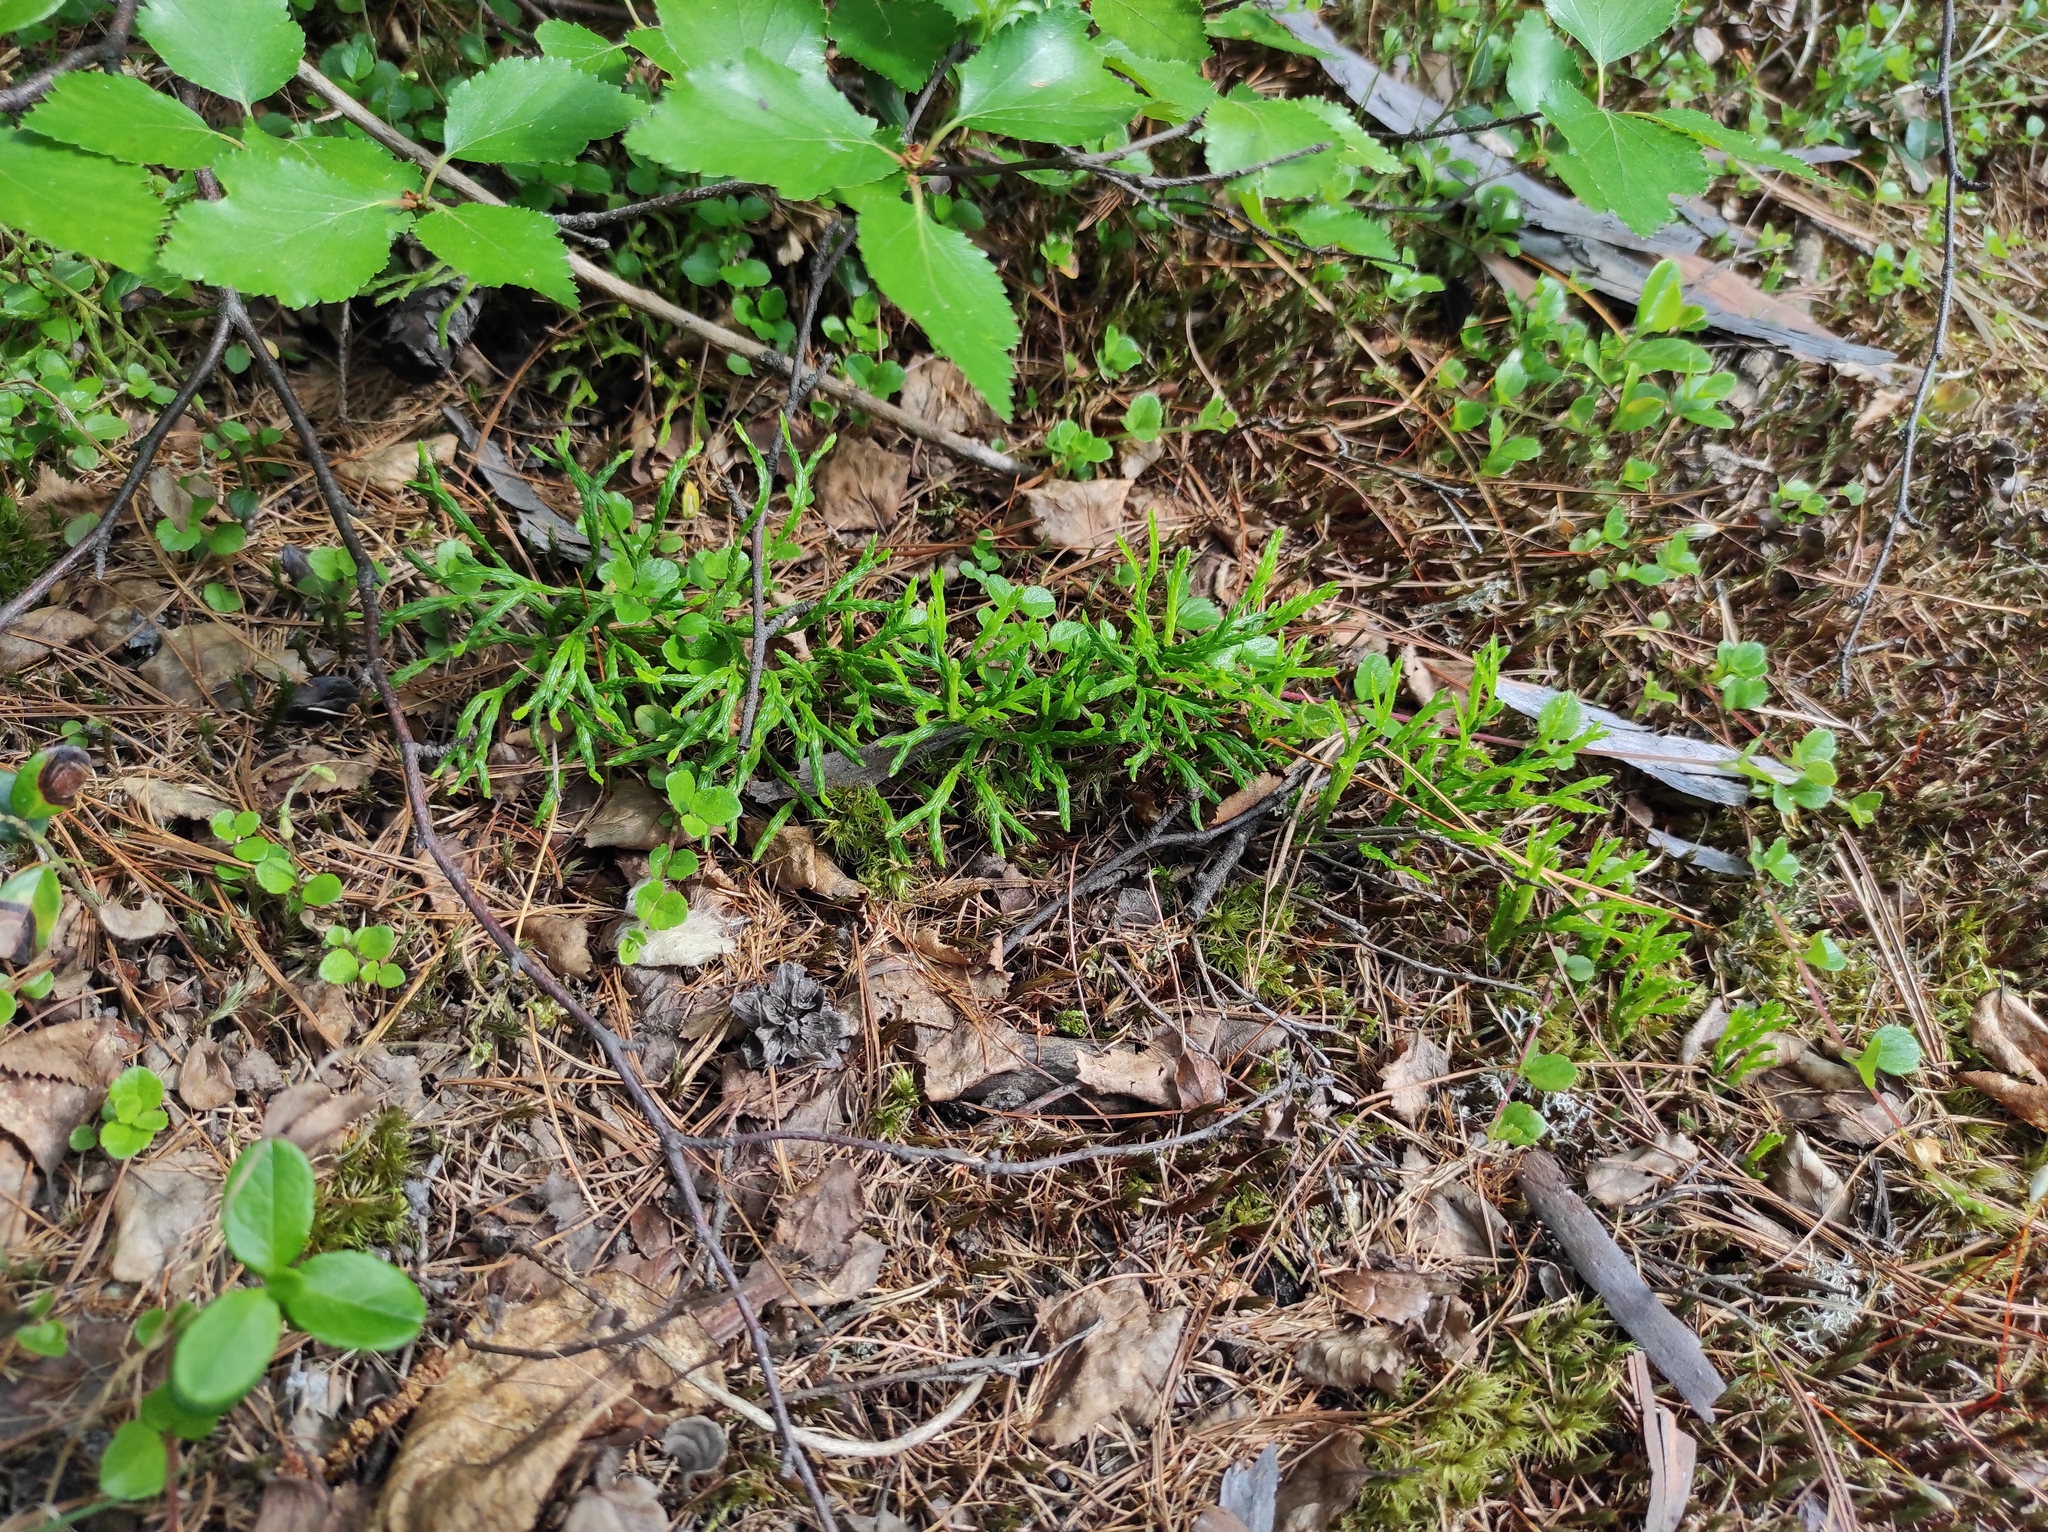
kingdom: Plantae
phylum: Tracheophyta
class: Lycopodiopsida
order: Lycopodiales
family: Lycopodiaceae
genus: Diphasiastrum
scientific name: Diphasiastrum complanatum
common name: Northern running-pine
